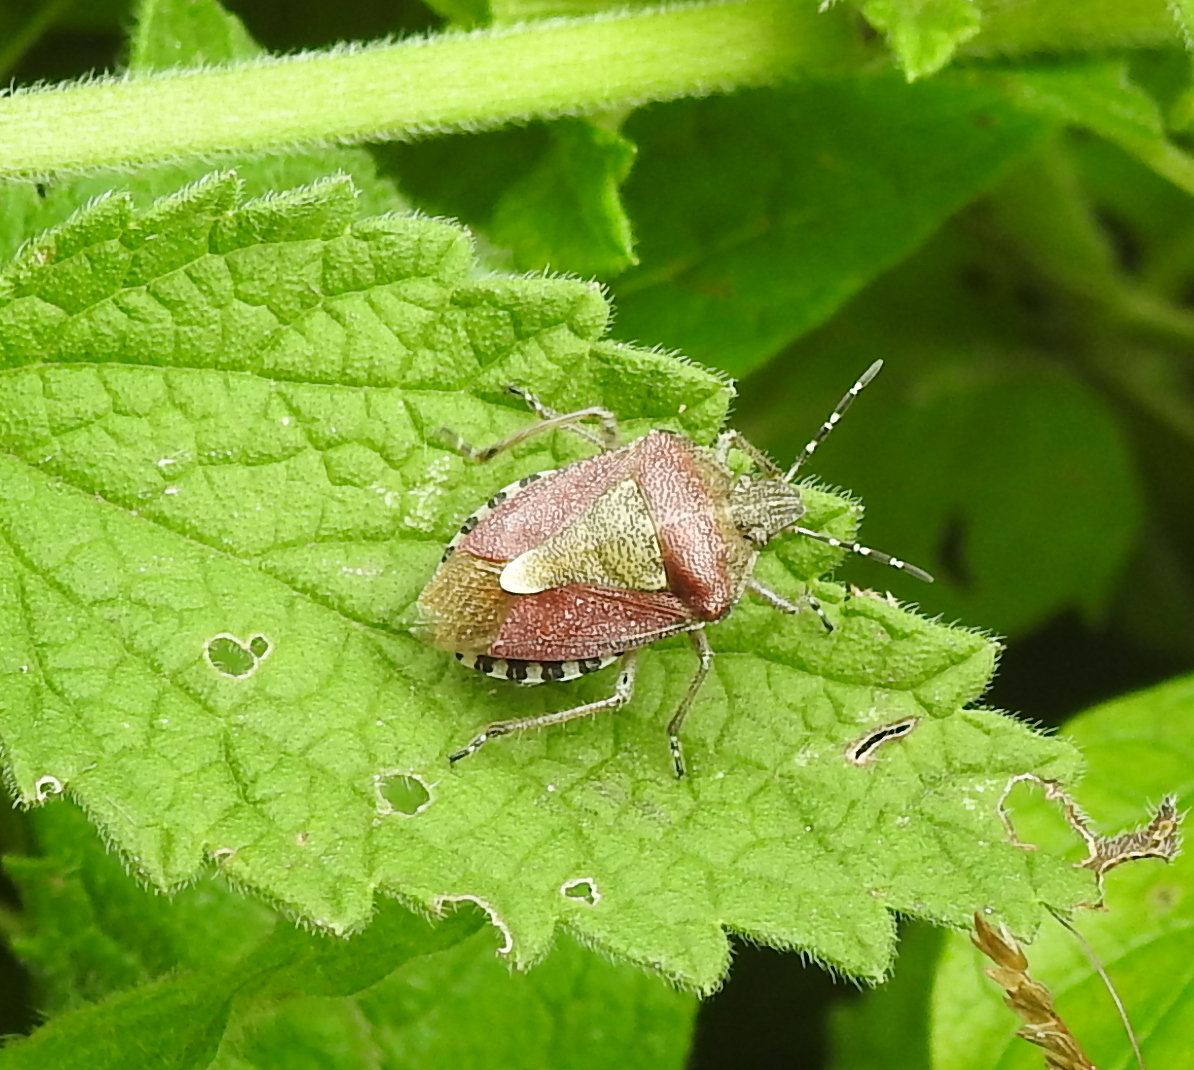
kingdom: Animalia
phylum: Arthropoda
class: Insecta
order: Hemiptera
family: Pentatomidae
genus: Dolycoris
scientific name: Dolycoris baccarum
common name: Sloe bug
